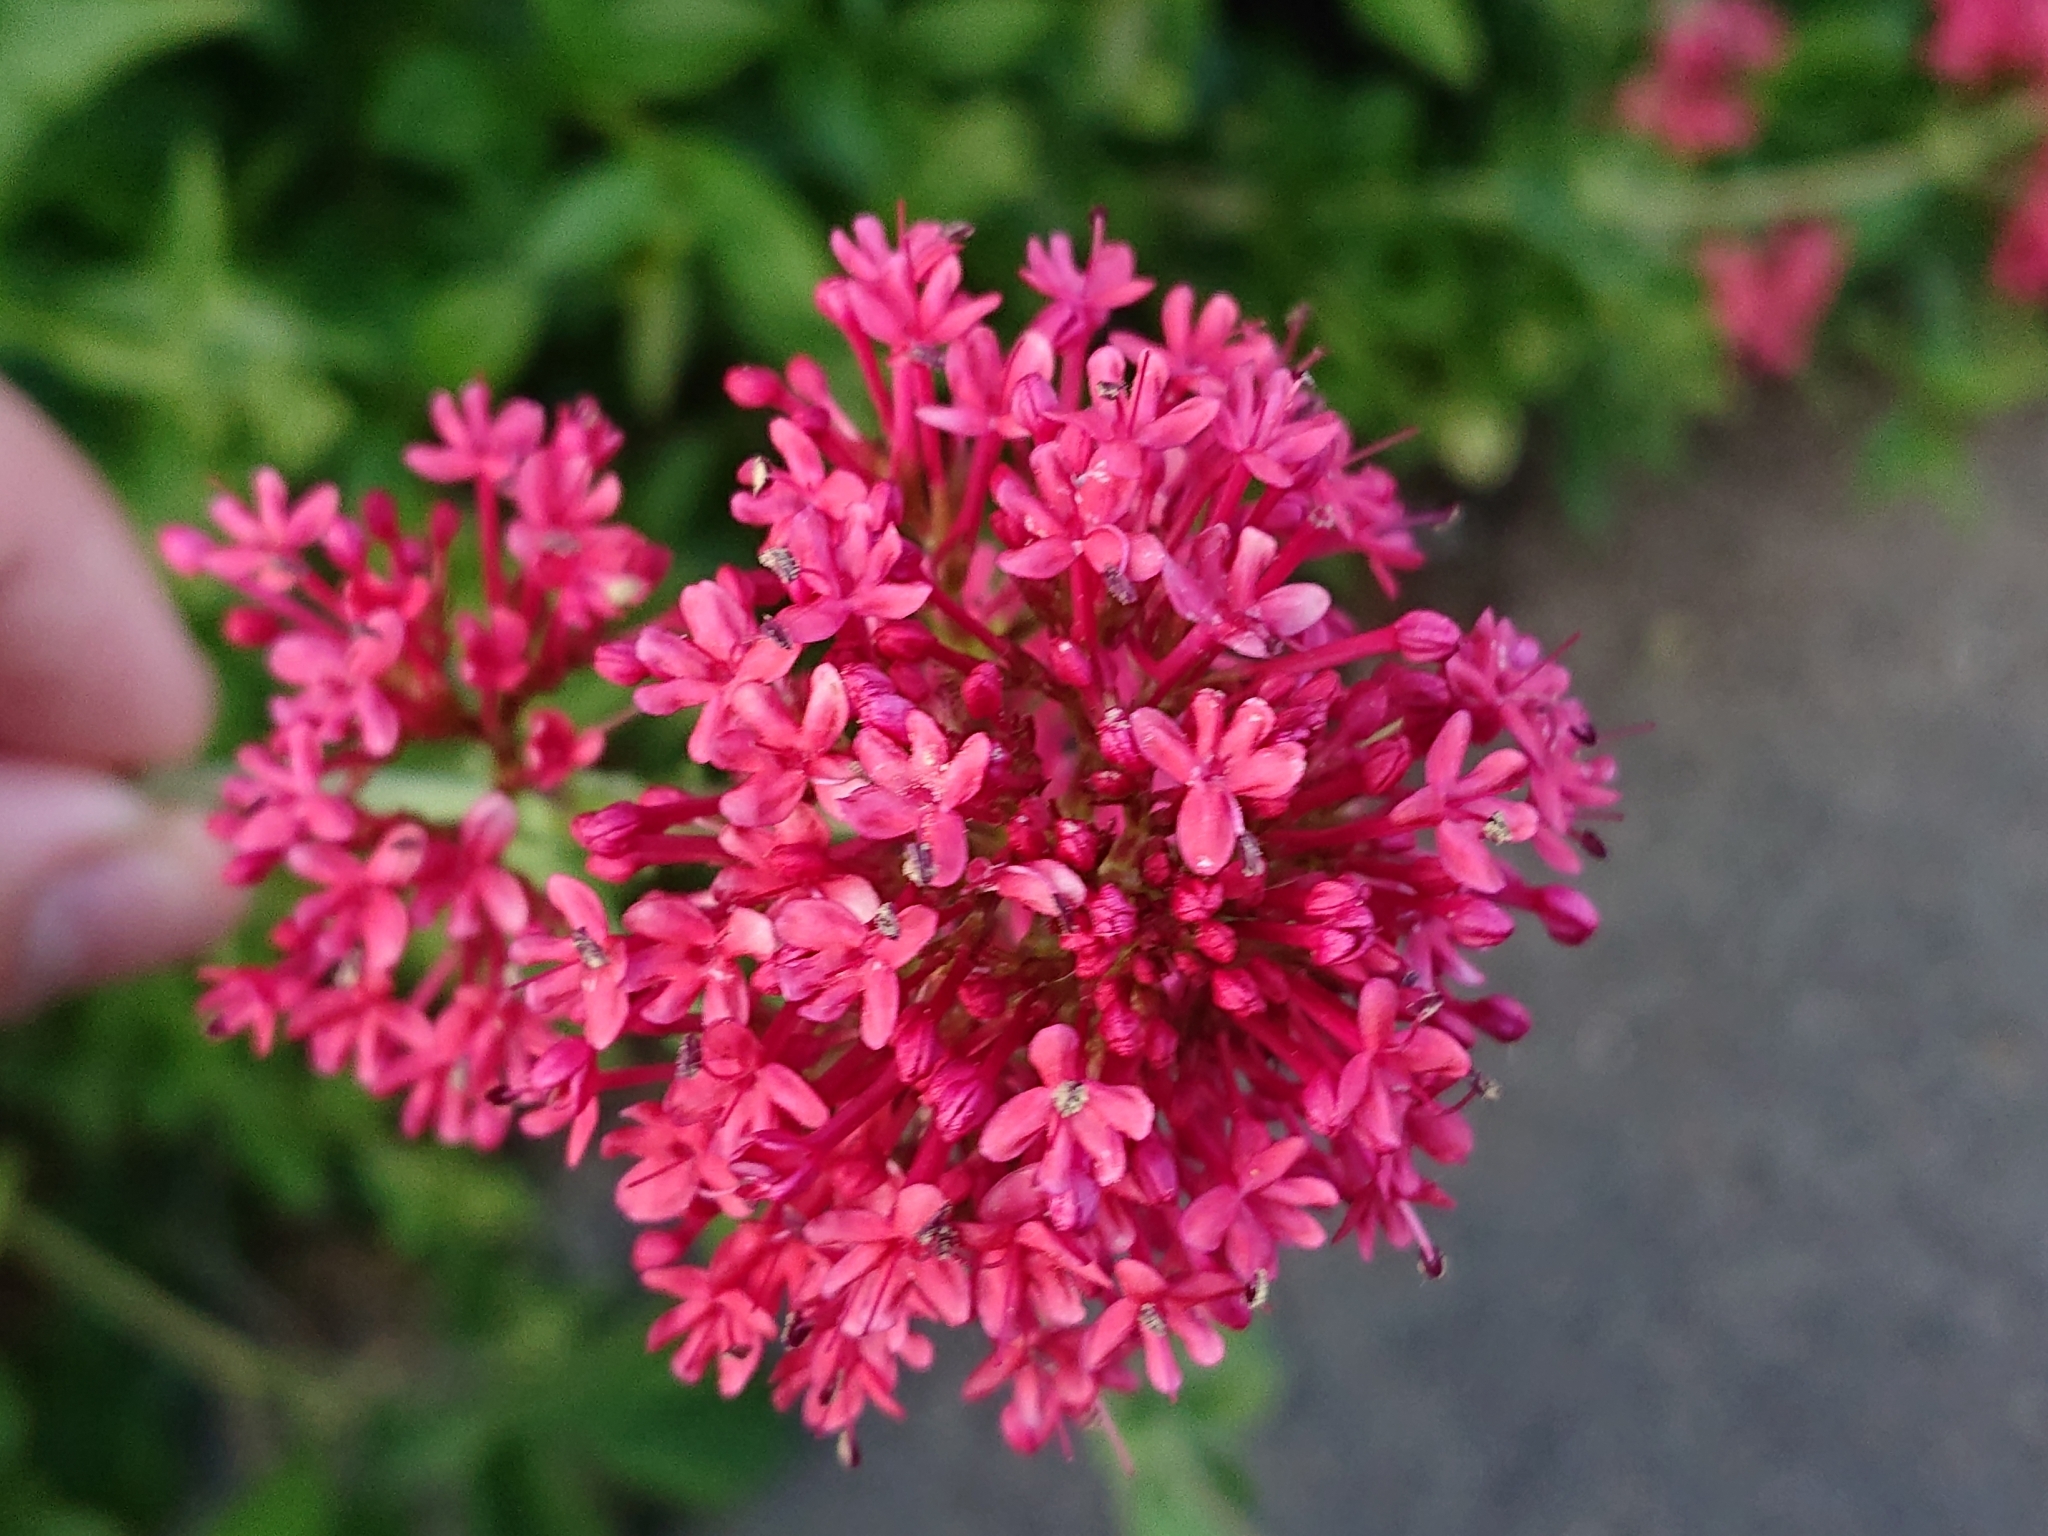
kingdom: Plantae
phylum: Tracheophyta
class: Magnoliopsida
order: Dipsacales
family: Caprifoliaceae
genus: Centranthus
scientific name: Centranthus ruber
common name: Red valerian
